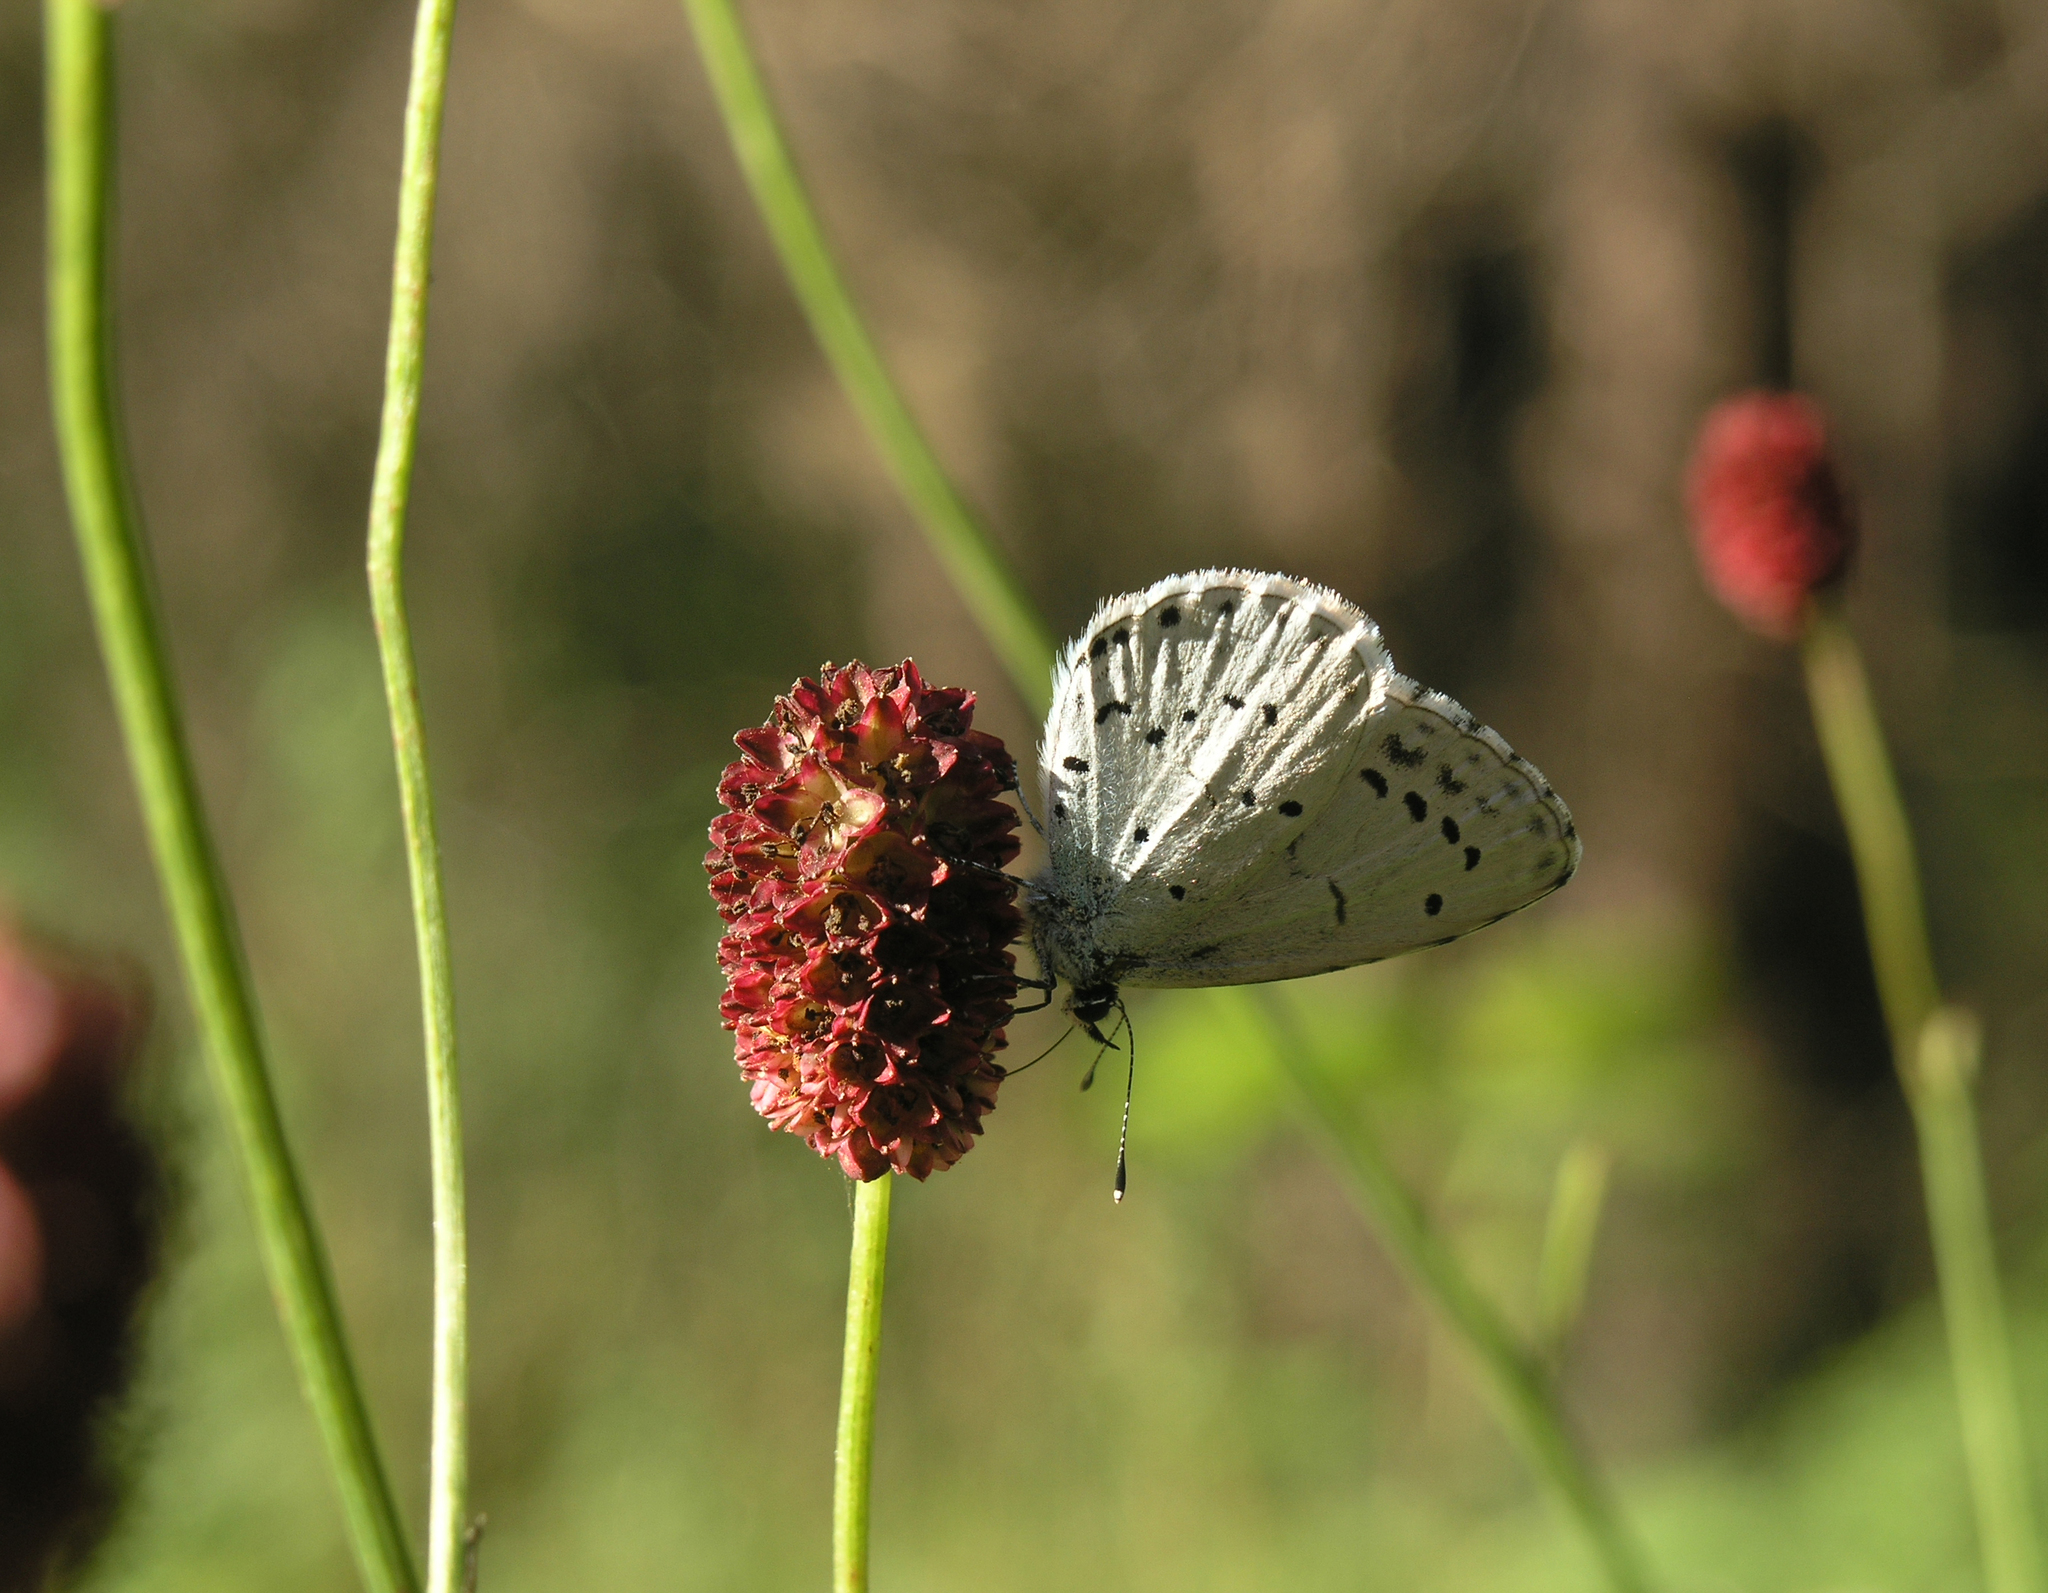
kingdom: Animalia
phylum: Arthropoda
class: Insecta
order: Lepidoptera
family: Lycaenidae
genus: Celastrina
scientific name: Celastrina argiolus
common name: Holly blue
